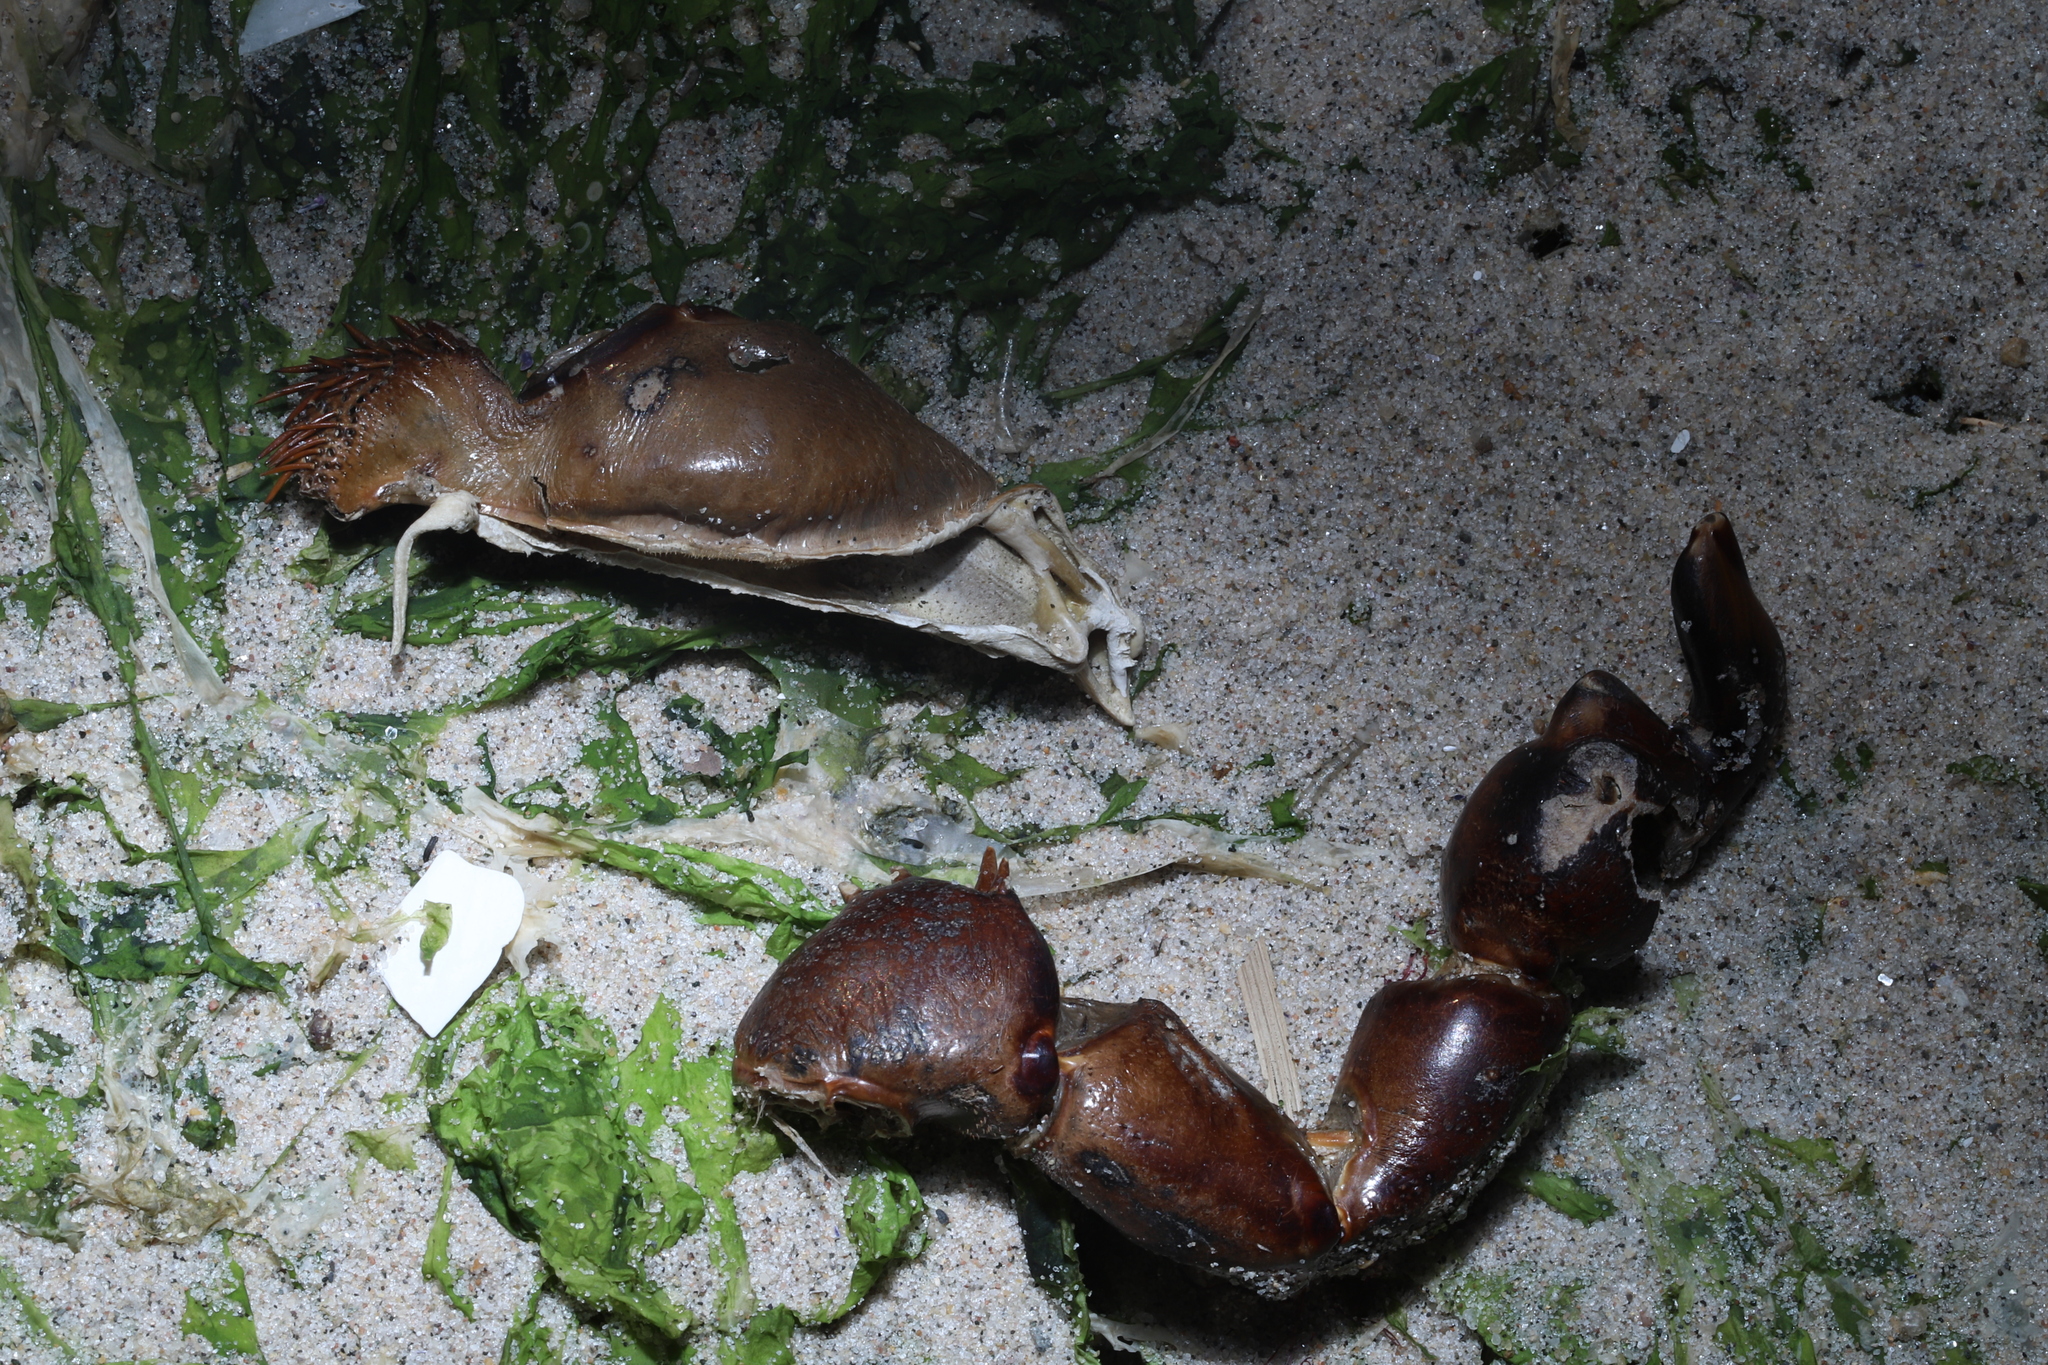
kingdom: Animalia
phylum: Arthropoda
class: Merostomata
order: Xiphosurida
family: Limulidae
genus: Limulus
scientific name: Limulus polyphemus
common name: Horseshoe crab
